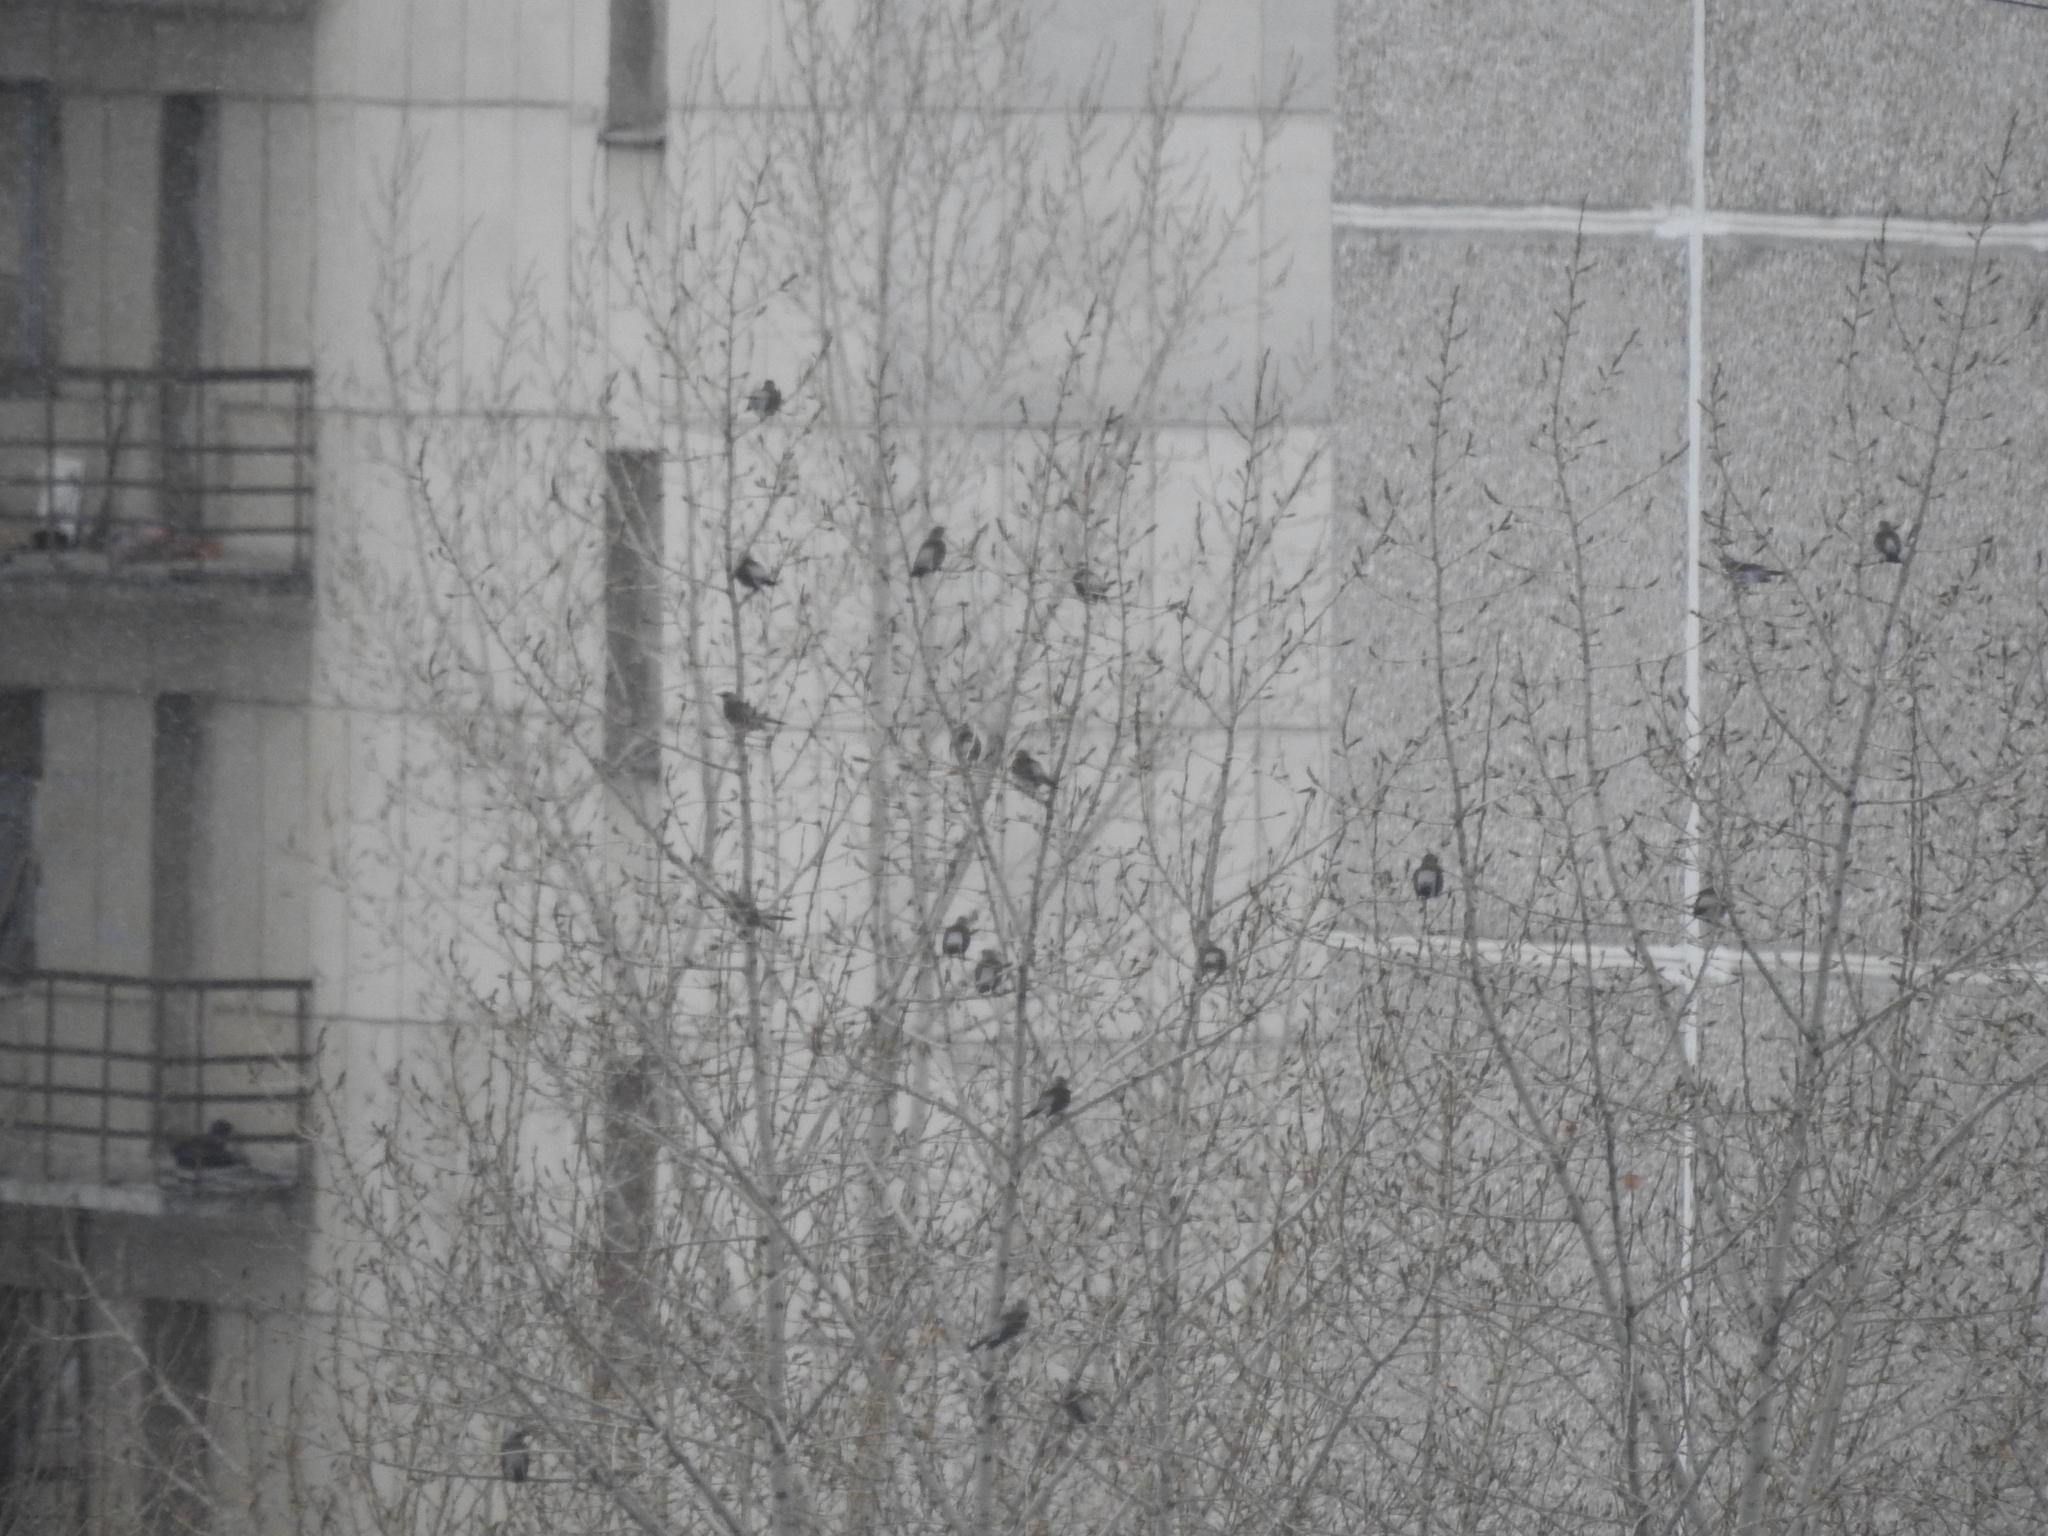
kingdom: Animalia
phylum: Chordata
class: Aves
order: Passeriformes
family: Turdidae
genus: Turdus
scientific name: Turdus pilaris
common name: Fieldfare
